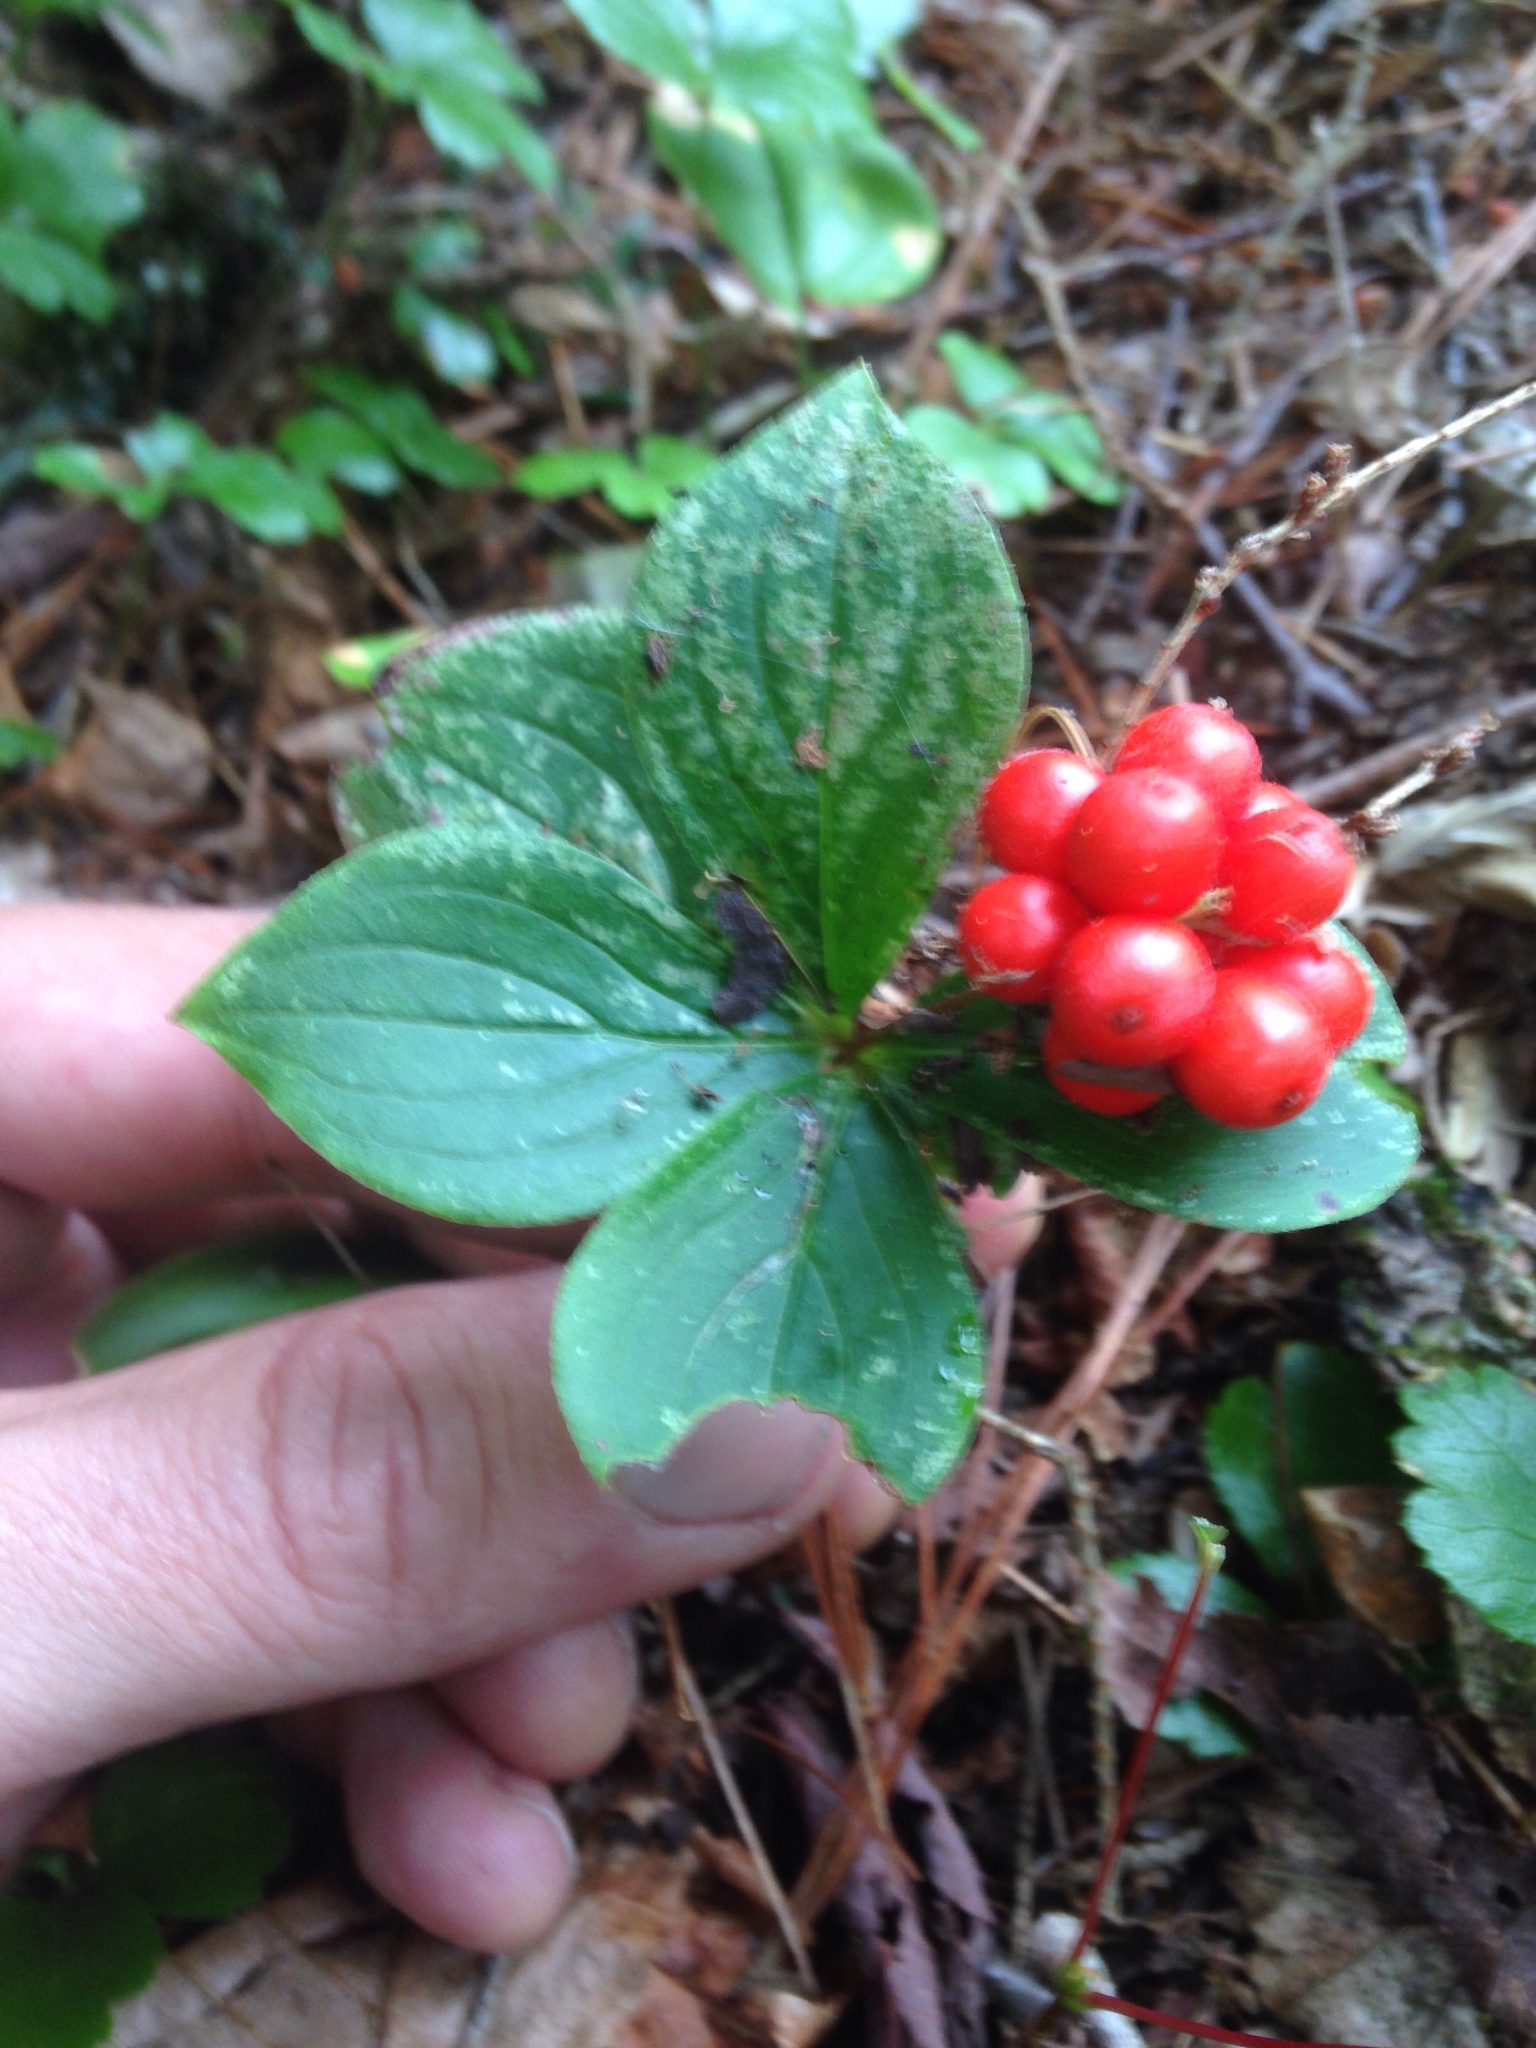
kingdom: Plantae
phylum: Tracheophyta
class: Magnoliopsida
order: Cornales
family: Cornaceae
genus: Cornus
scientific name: Cornus canadensis
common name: Creeping dogwood
